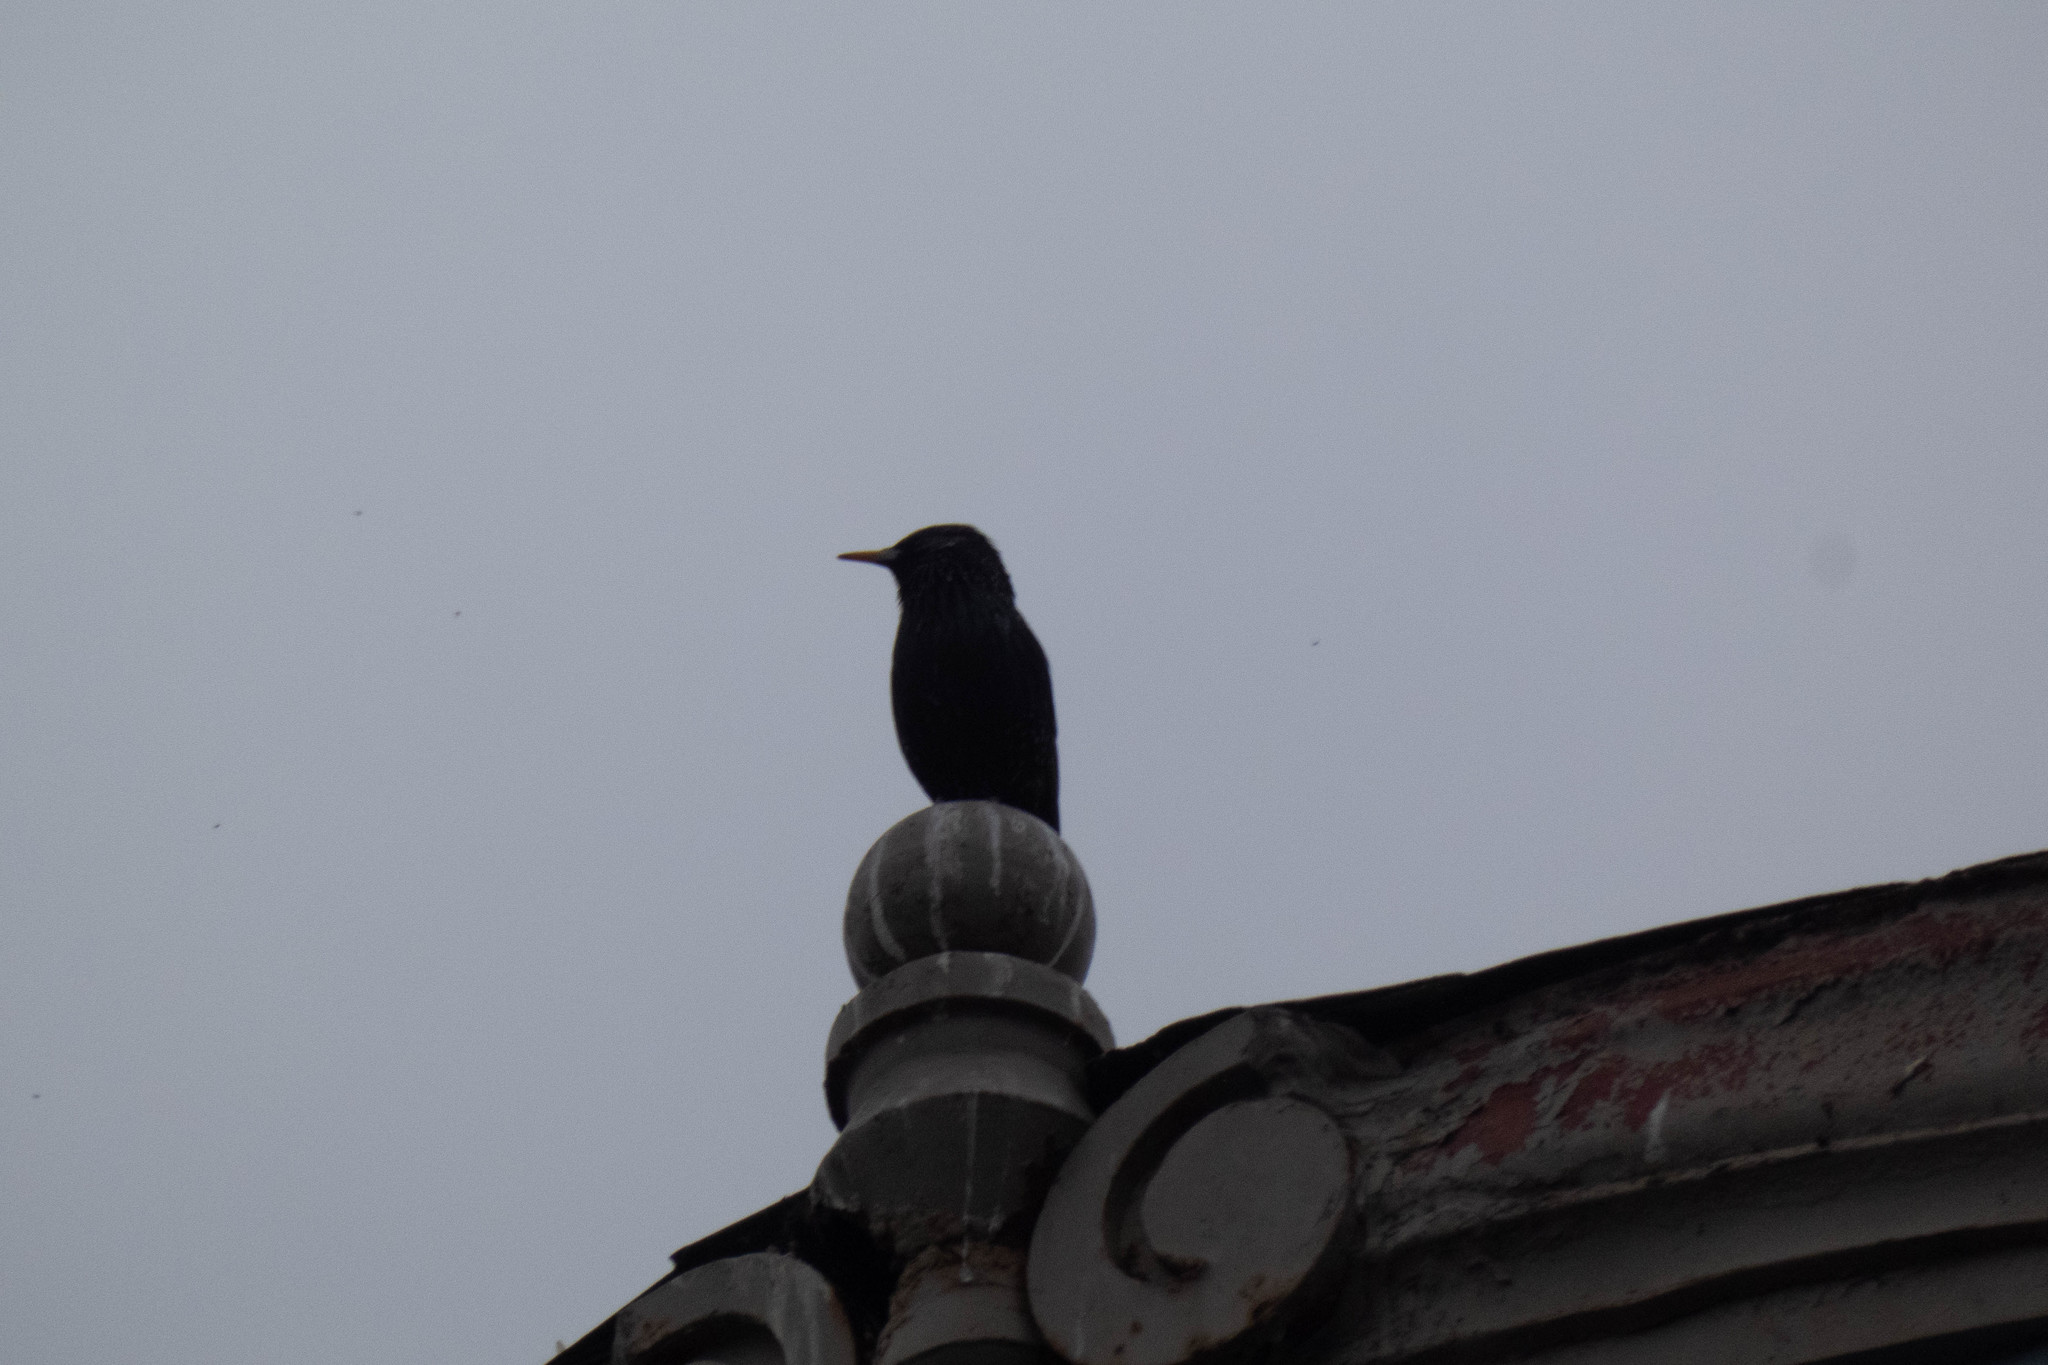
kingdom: Animalia
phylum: Chordata
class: Aves
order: Passeriformes
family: Sturnidae
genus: Sturnus
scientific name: Sturnus vulgaris
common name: Common starling
